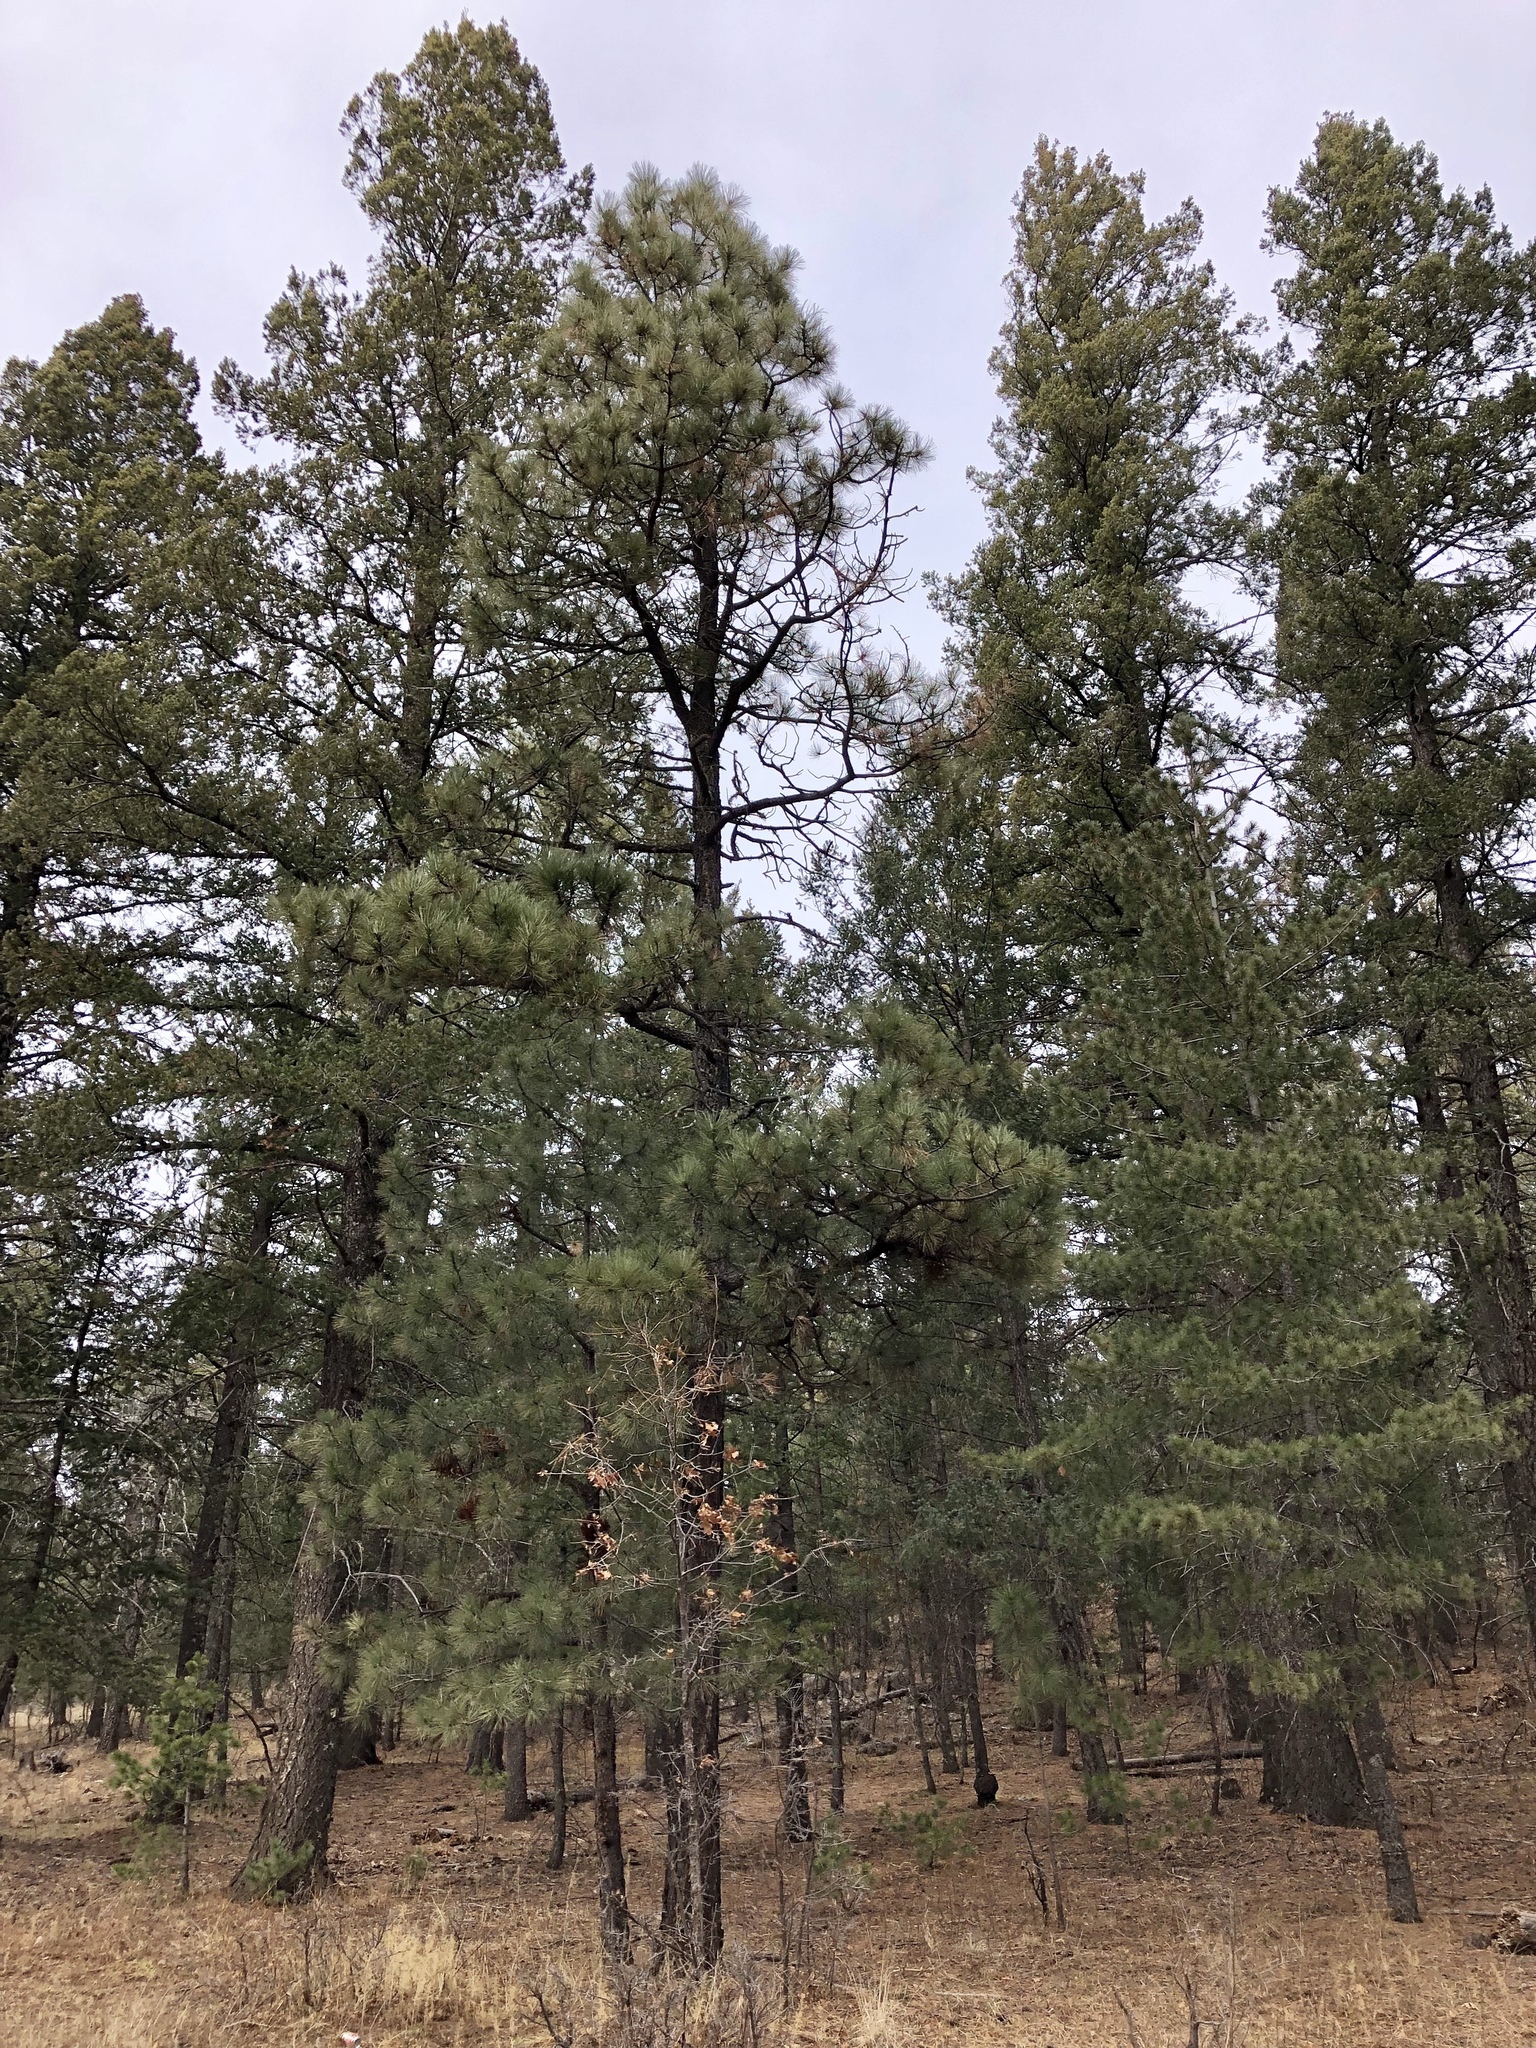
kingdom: Plantae
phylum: Tracheophyta
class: Pinopsida
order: Pinales
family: Pinaceae
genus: Pinus
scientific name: Pinus ponderosa
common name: Western yellow-pine
